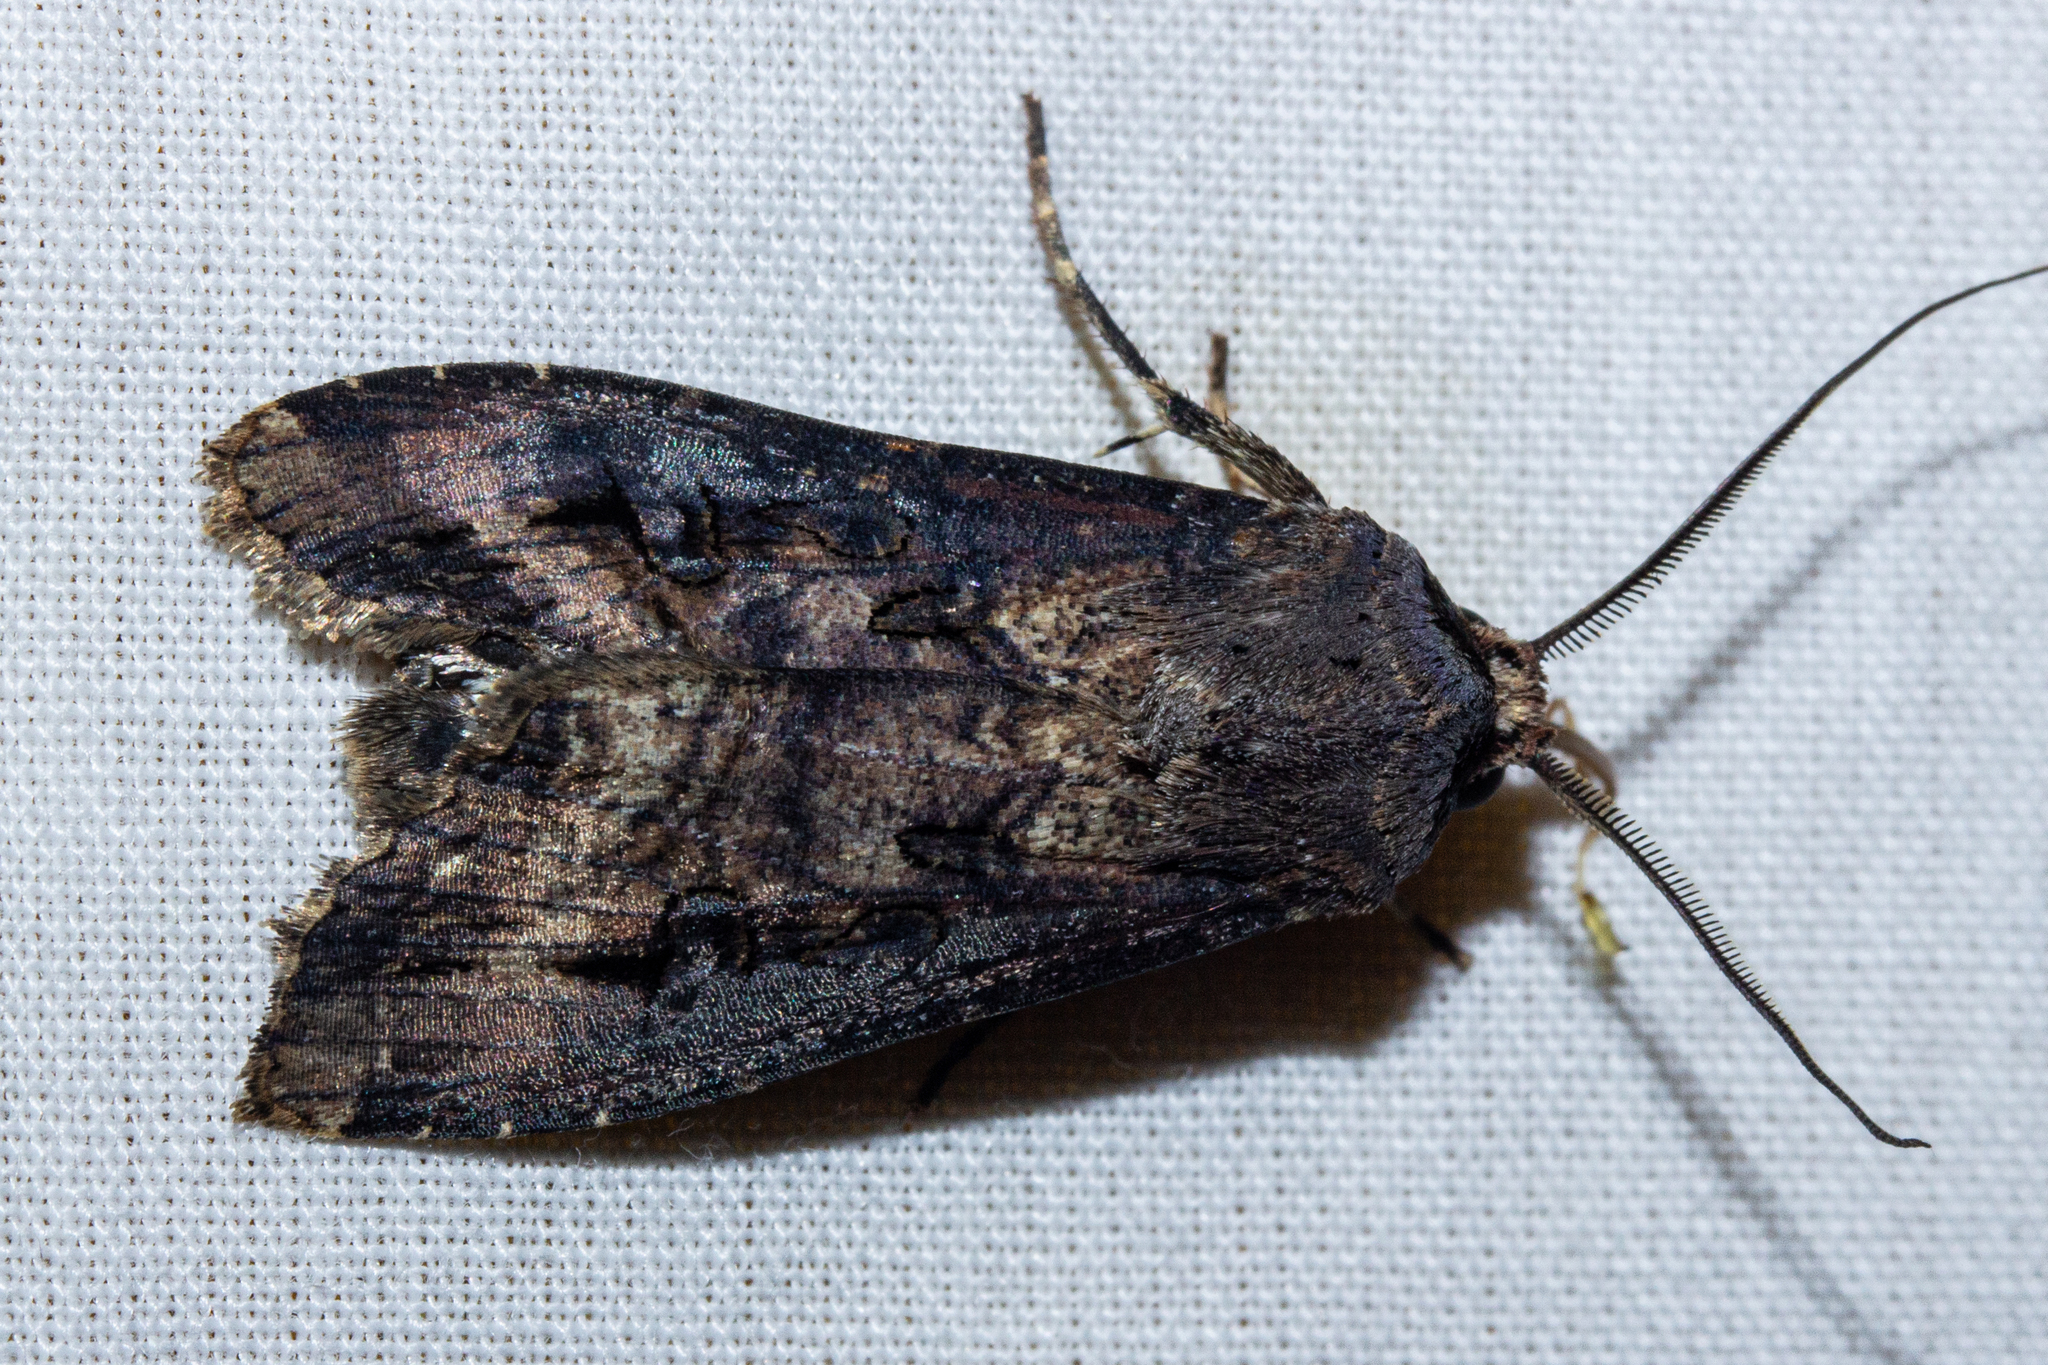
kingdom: Animalia
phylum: Arthropoda
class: Insecta
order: Lepidoptera
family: Noctuidae
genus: Agrotis
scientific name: Agrotis ipsilon
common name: Dark sword-grass
